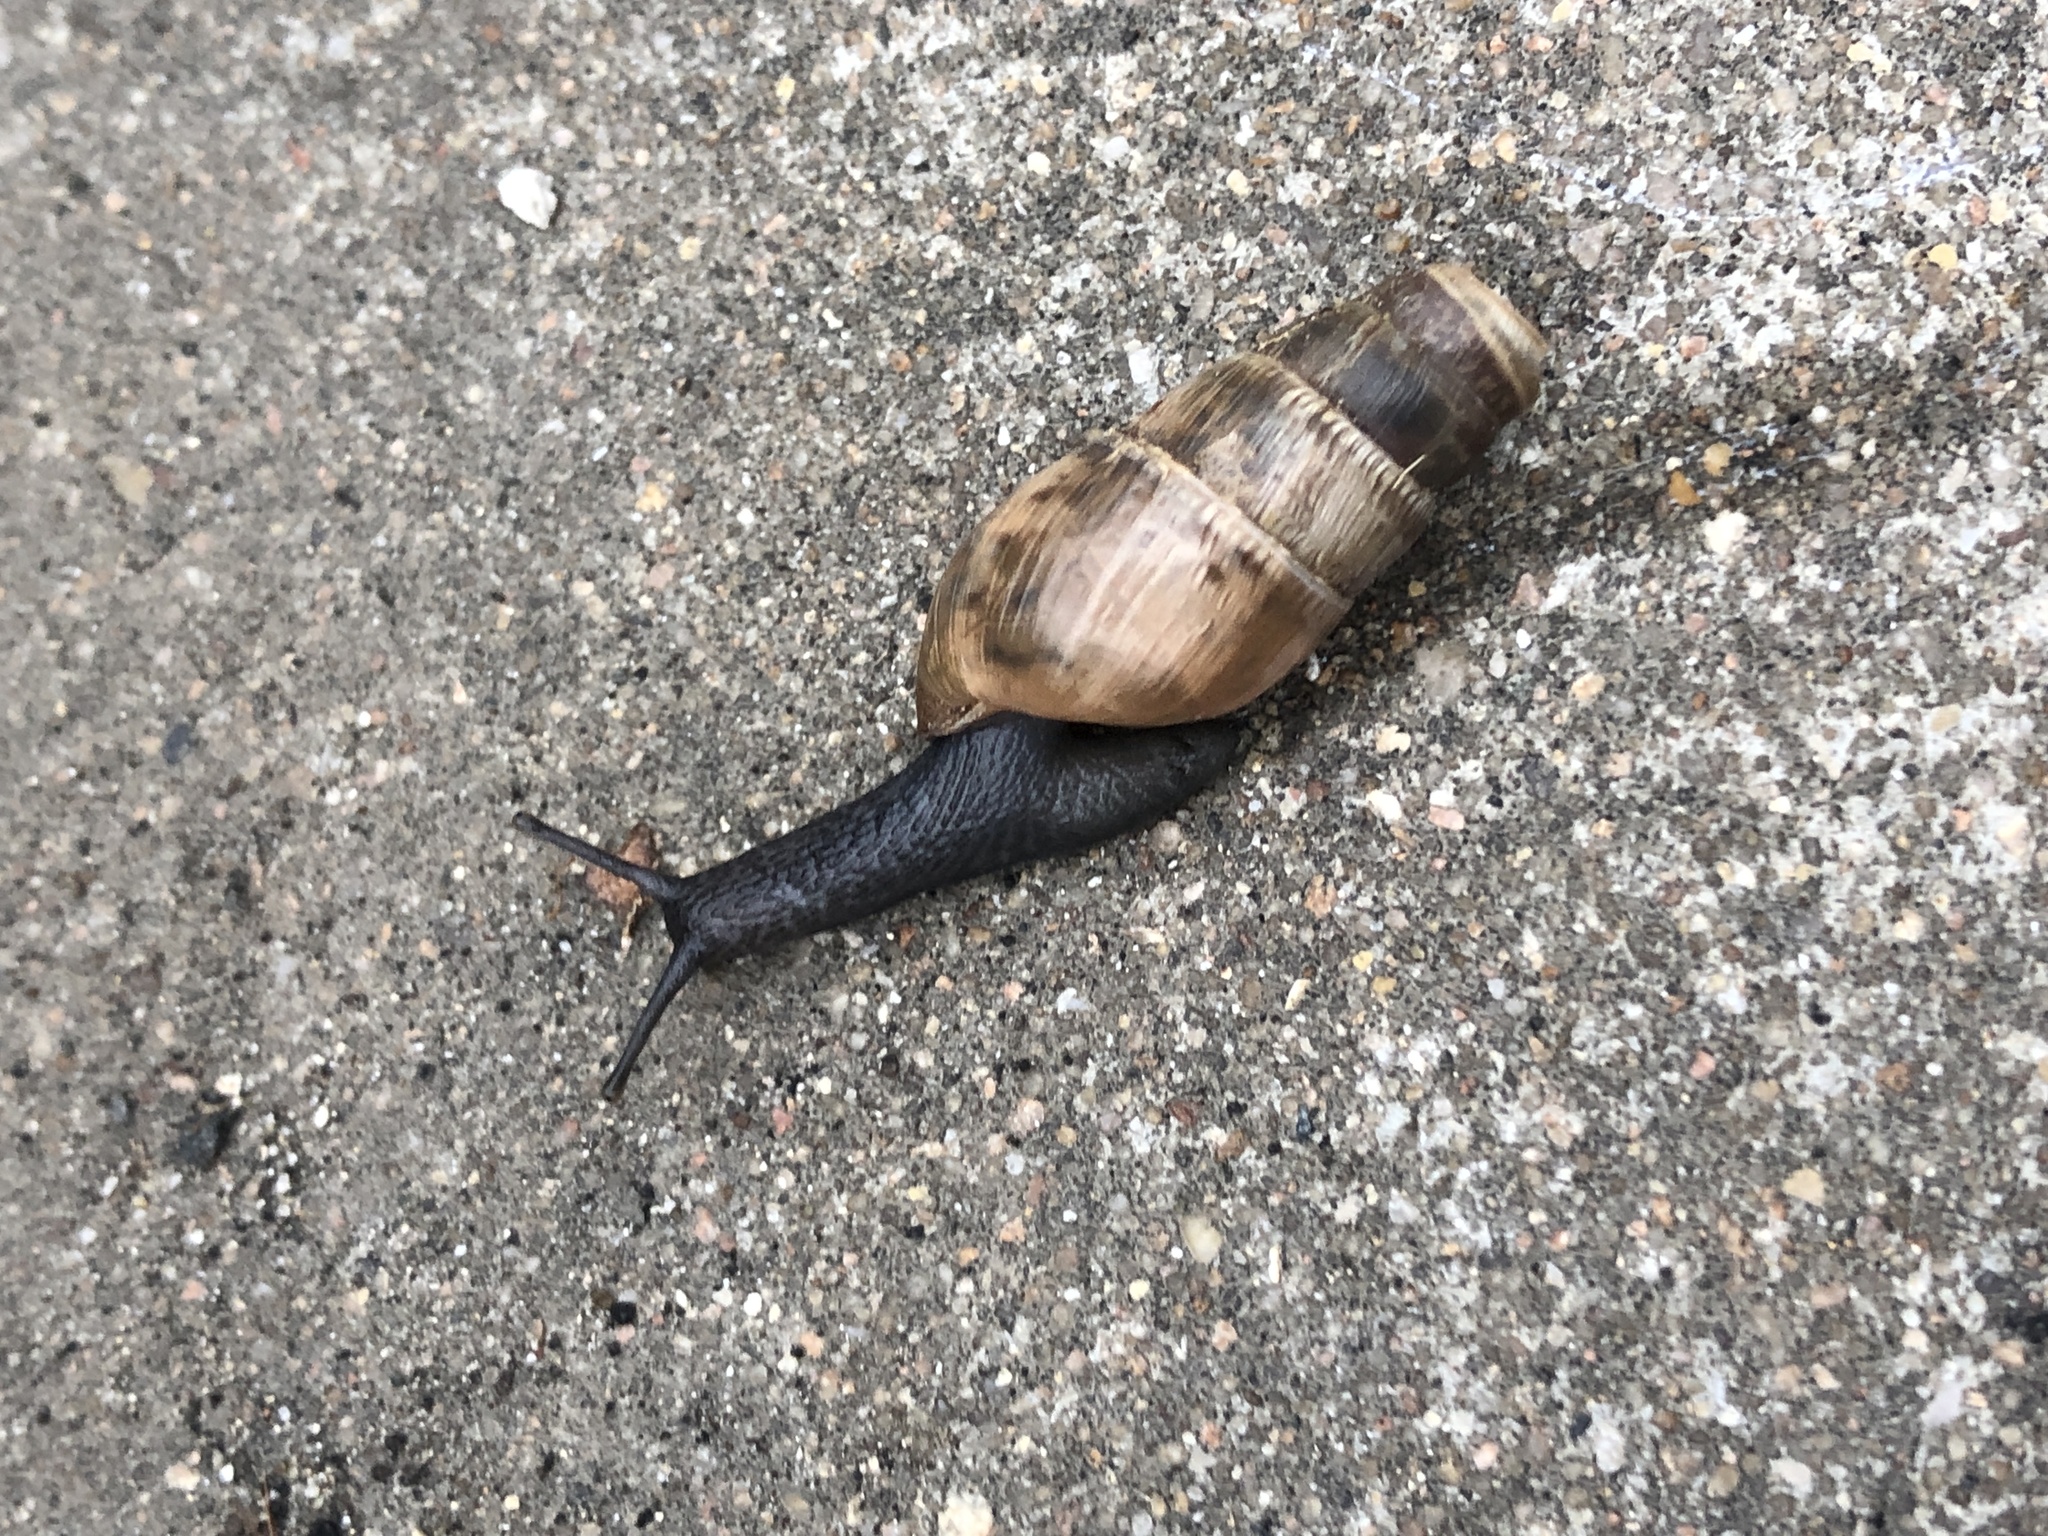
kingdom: Animalia
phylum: Mollusca
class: Gastropoda
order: Stylommatophora
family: Achatinidae
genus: Rumina
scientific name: Rumina decollata
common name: Decollate snail
